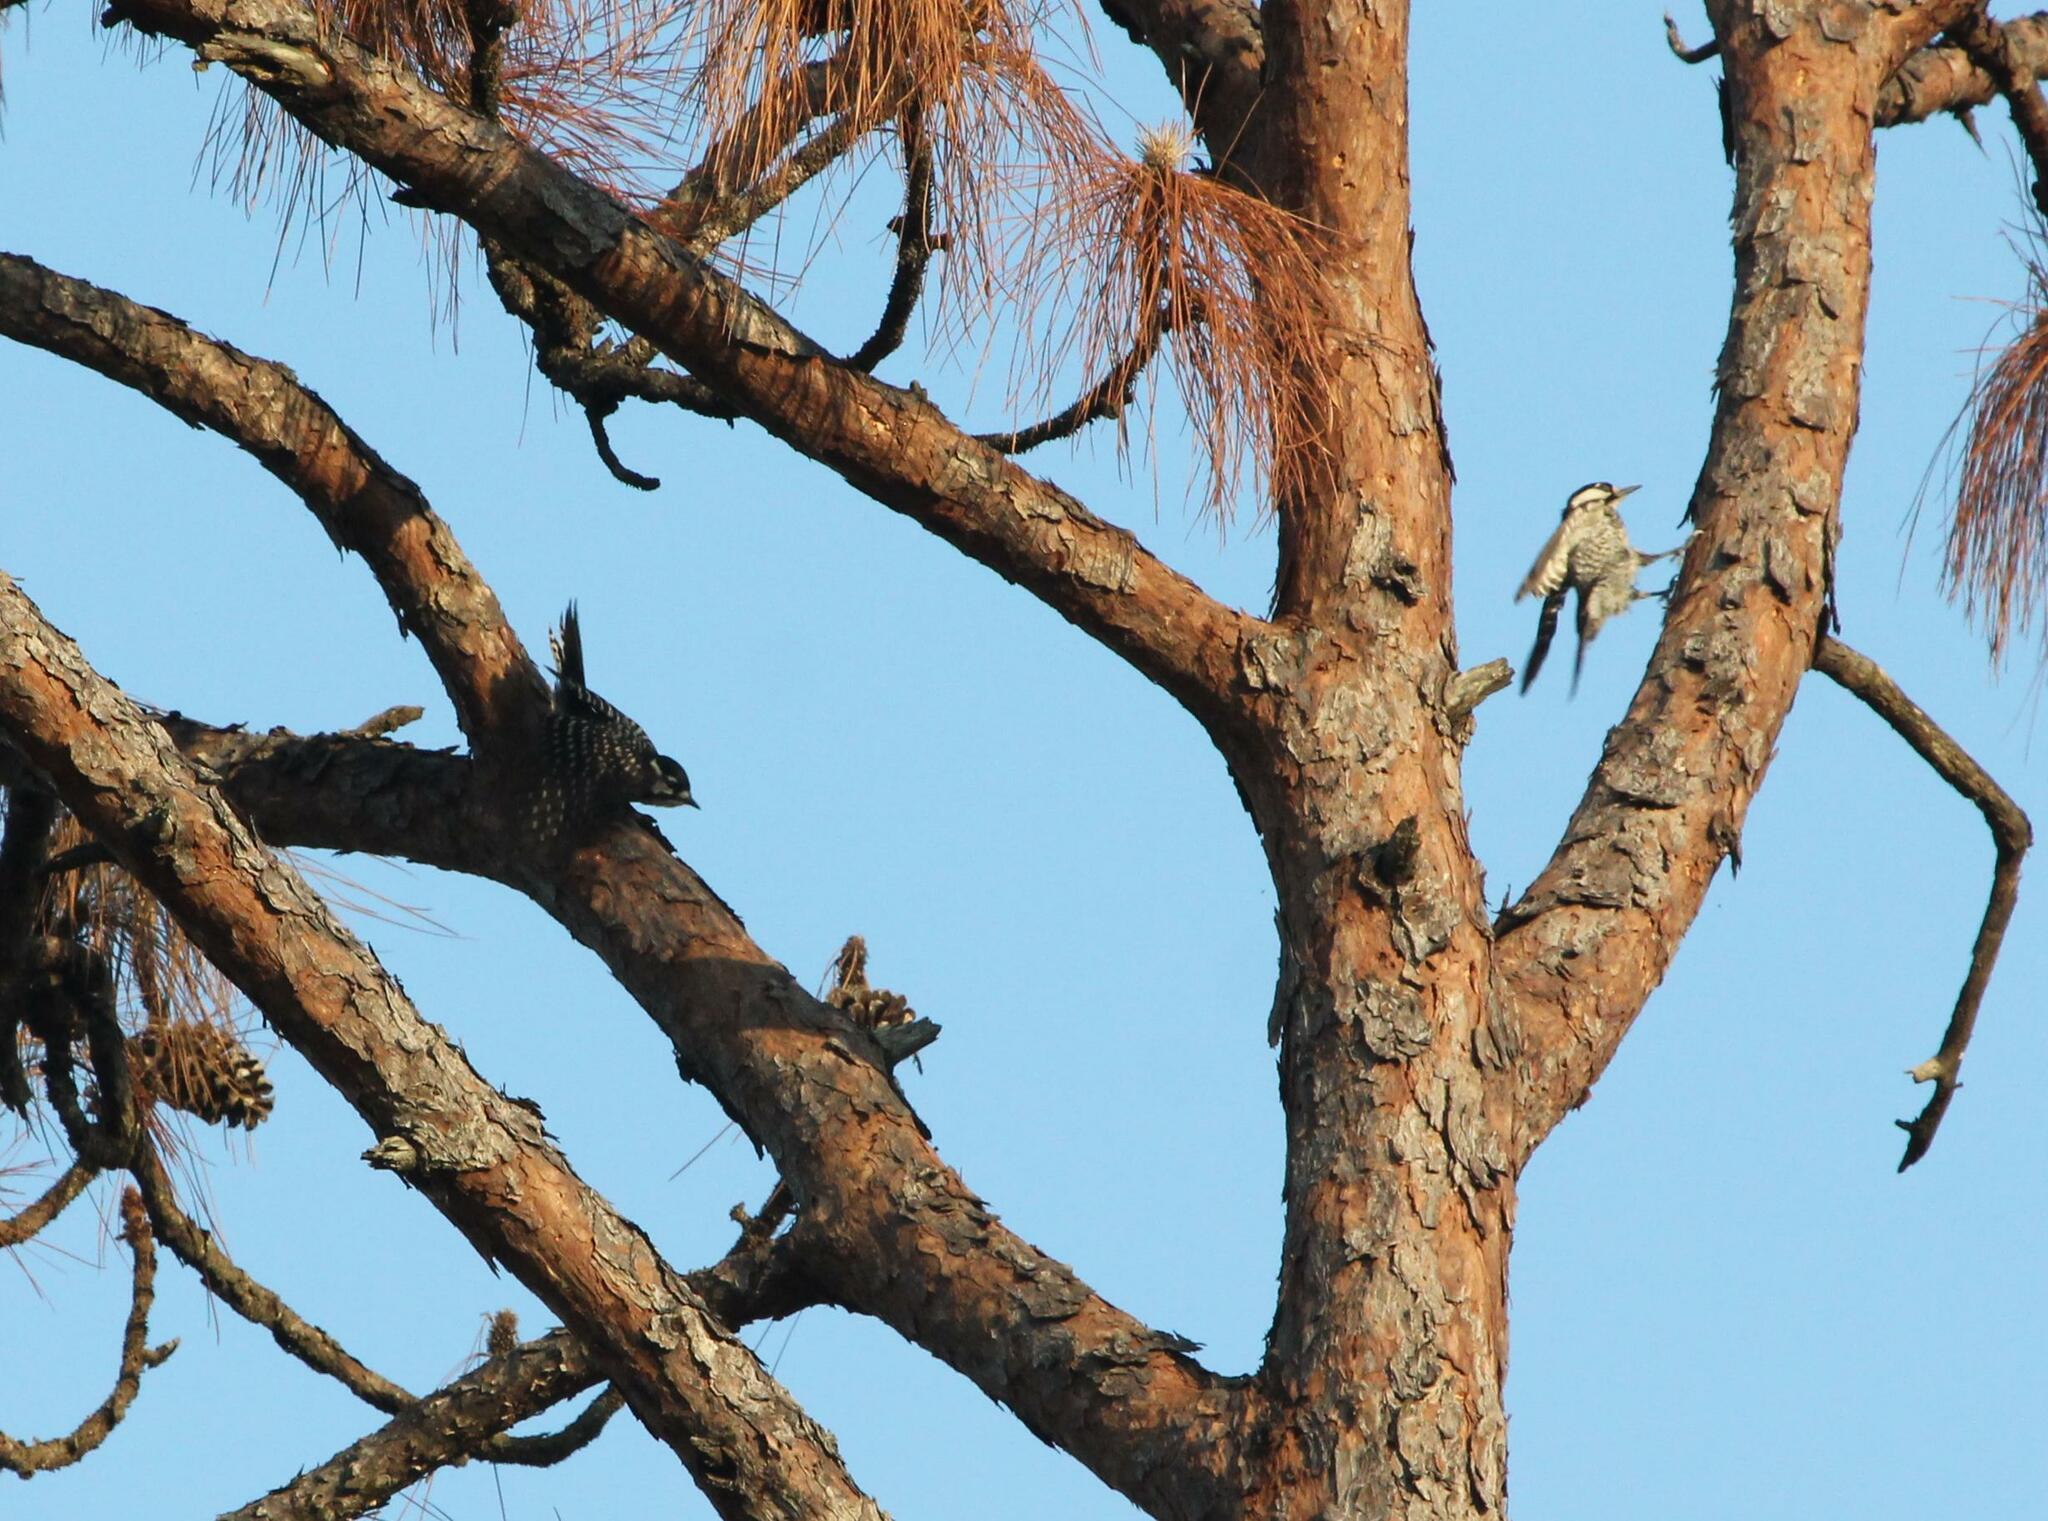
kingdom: Animalia
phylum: Chordata
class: Aves
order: Piciformes
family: Picidae
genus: Leuconotopicus
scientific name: Leuconotopicus borealis
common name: Red-cockaded woodpecker
